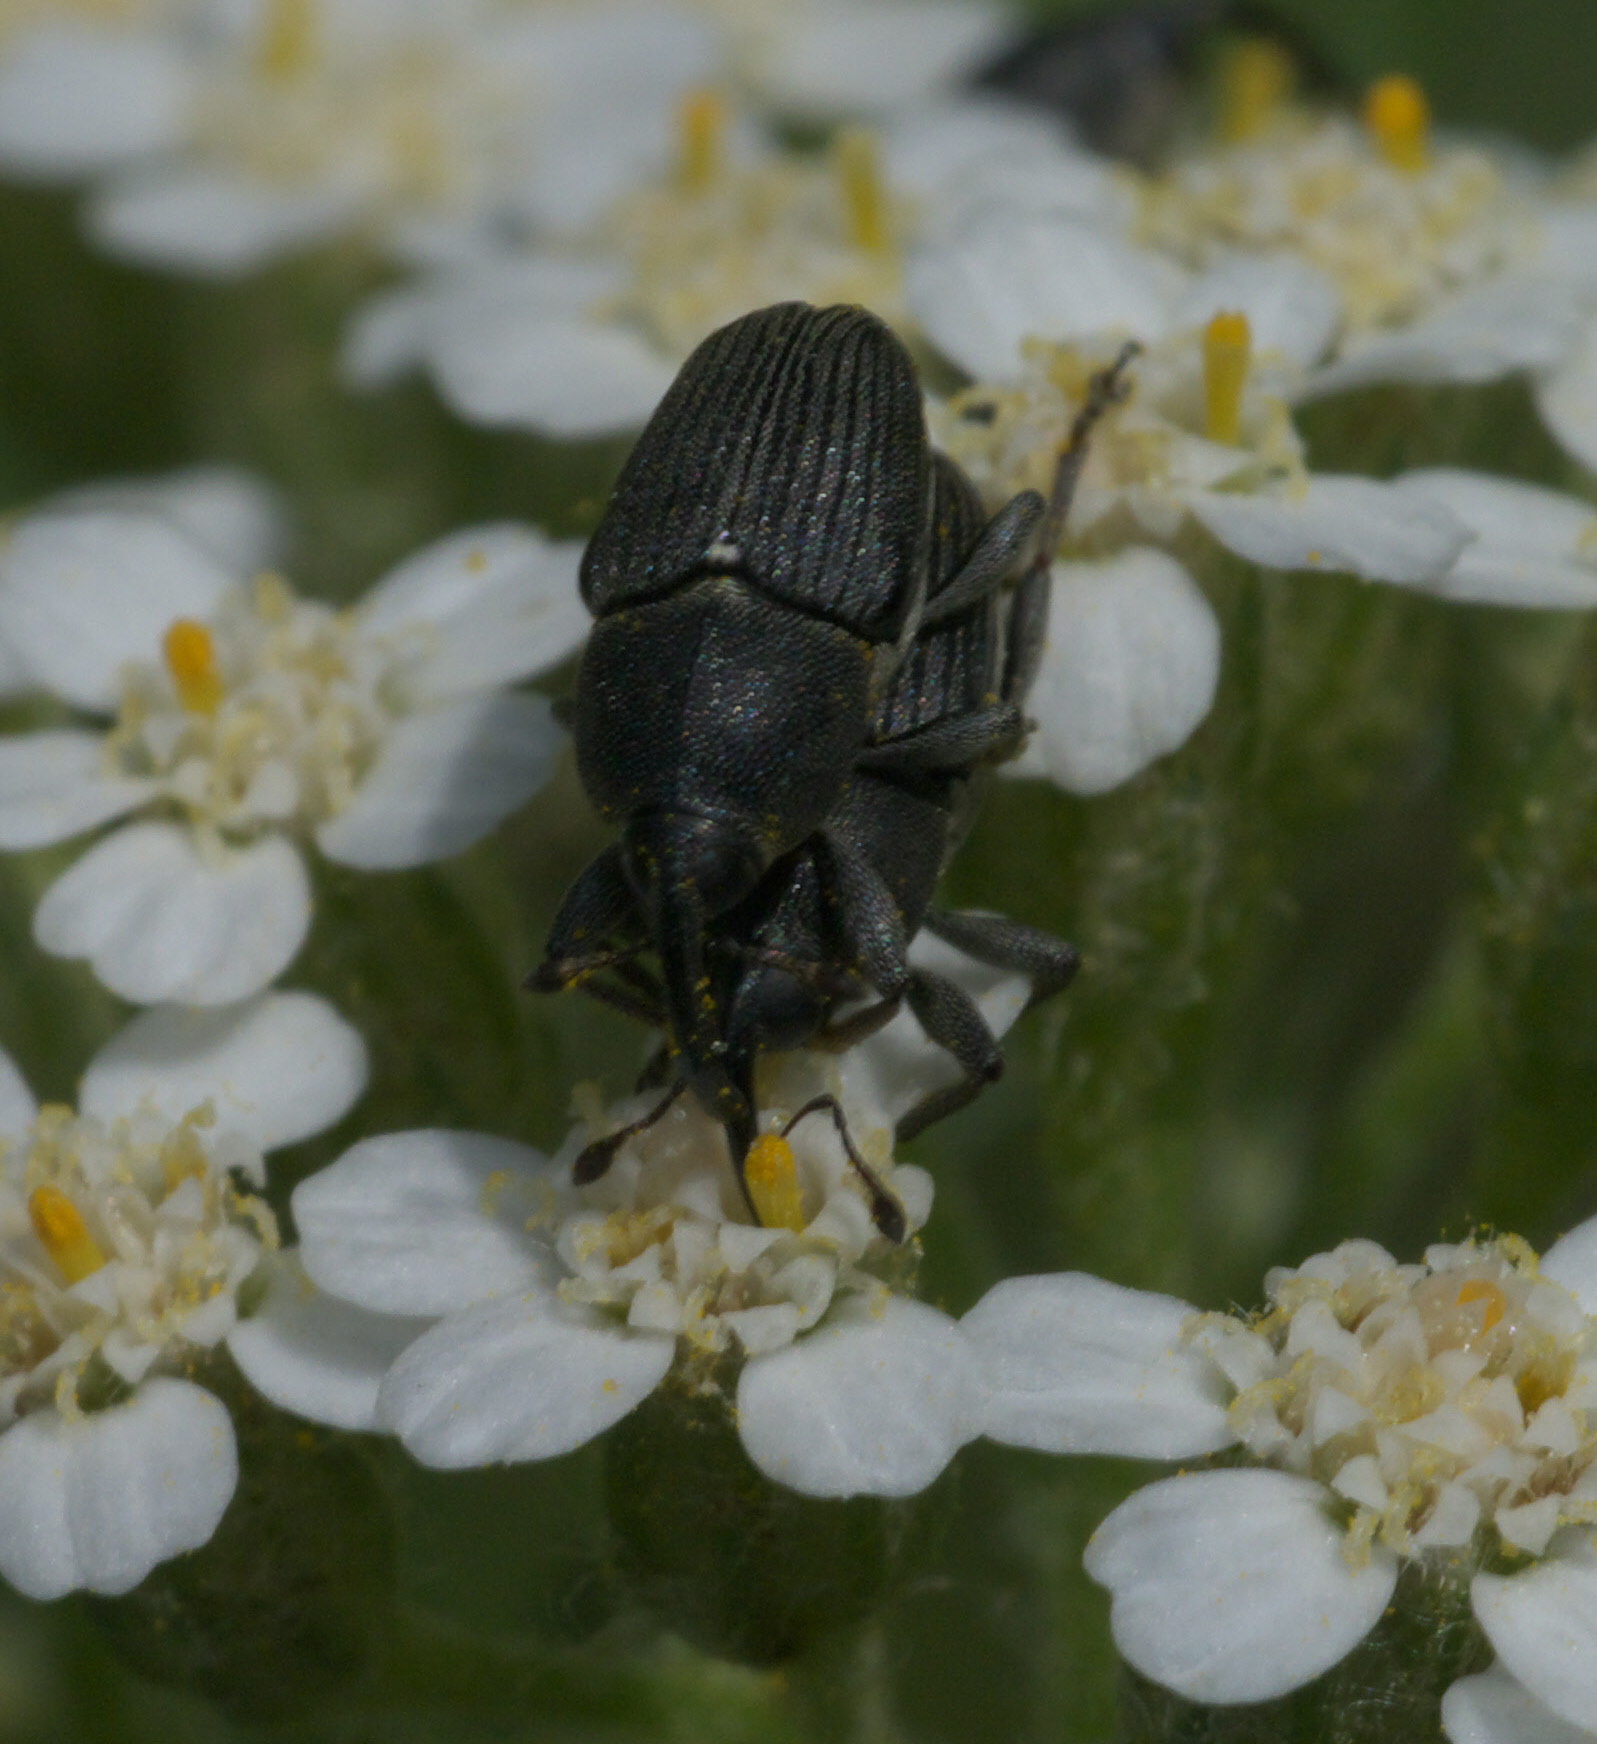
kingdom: Animalia
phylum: Arthropoda
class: Insecta
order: Coleoptera
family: Curculionidae
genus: Odontocorynus
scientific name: Odontocorynus salebrosus
